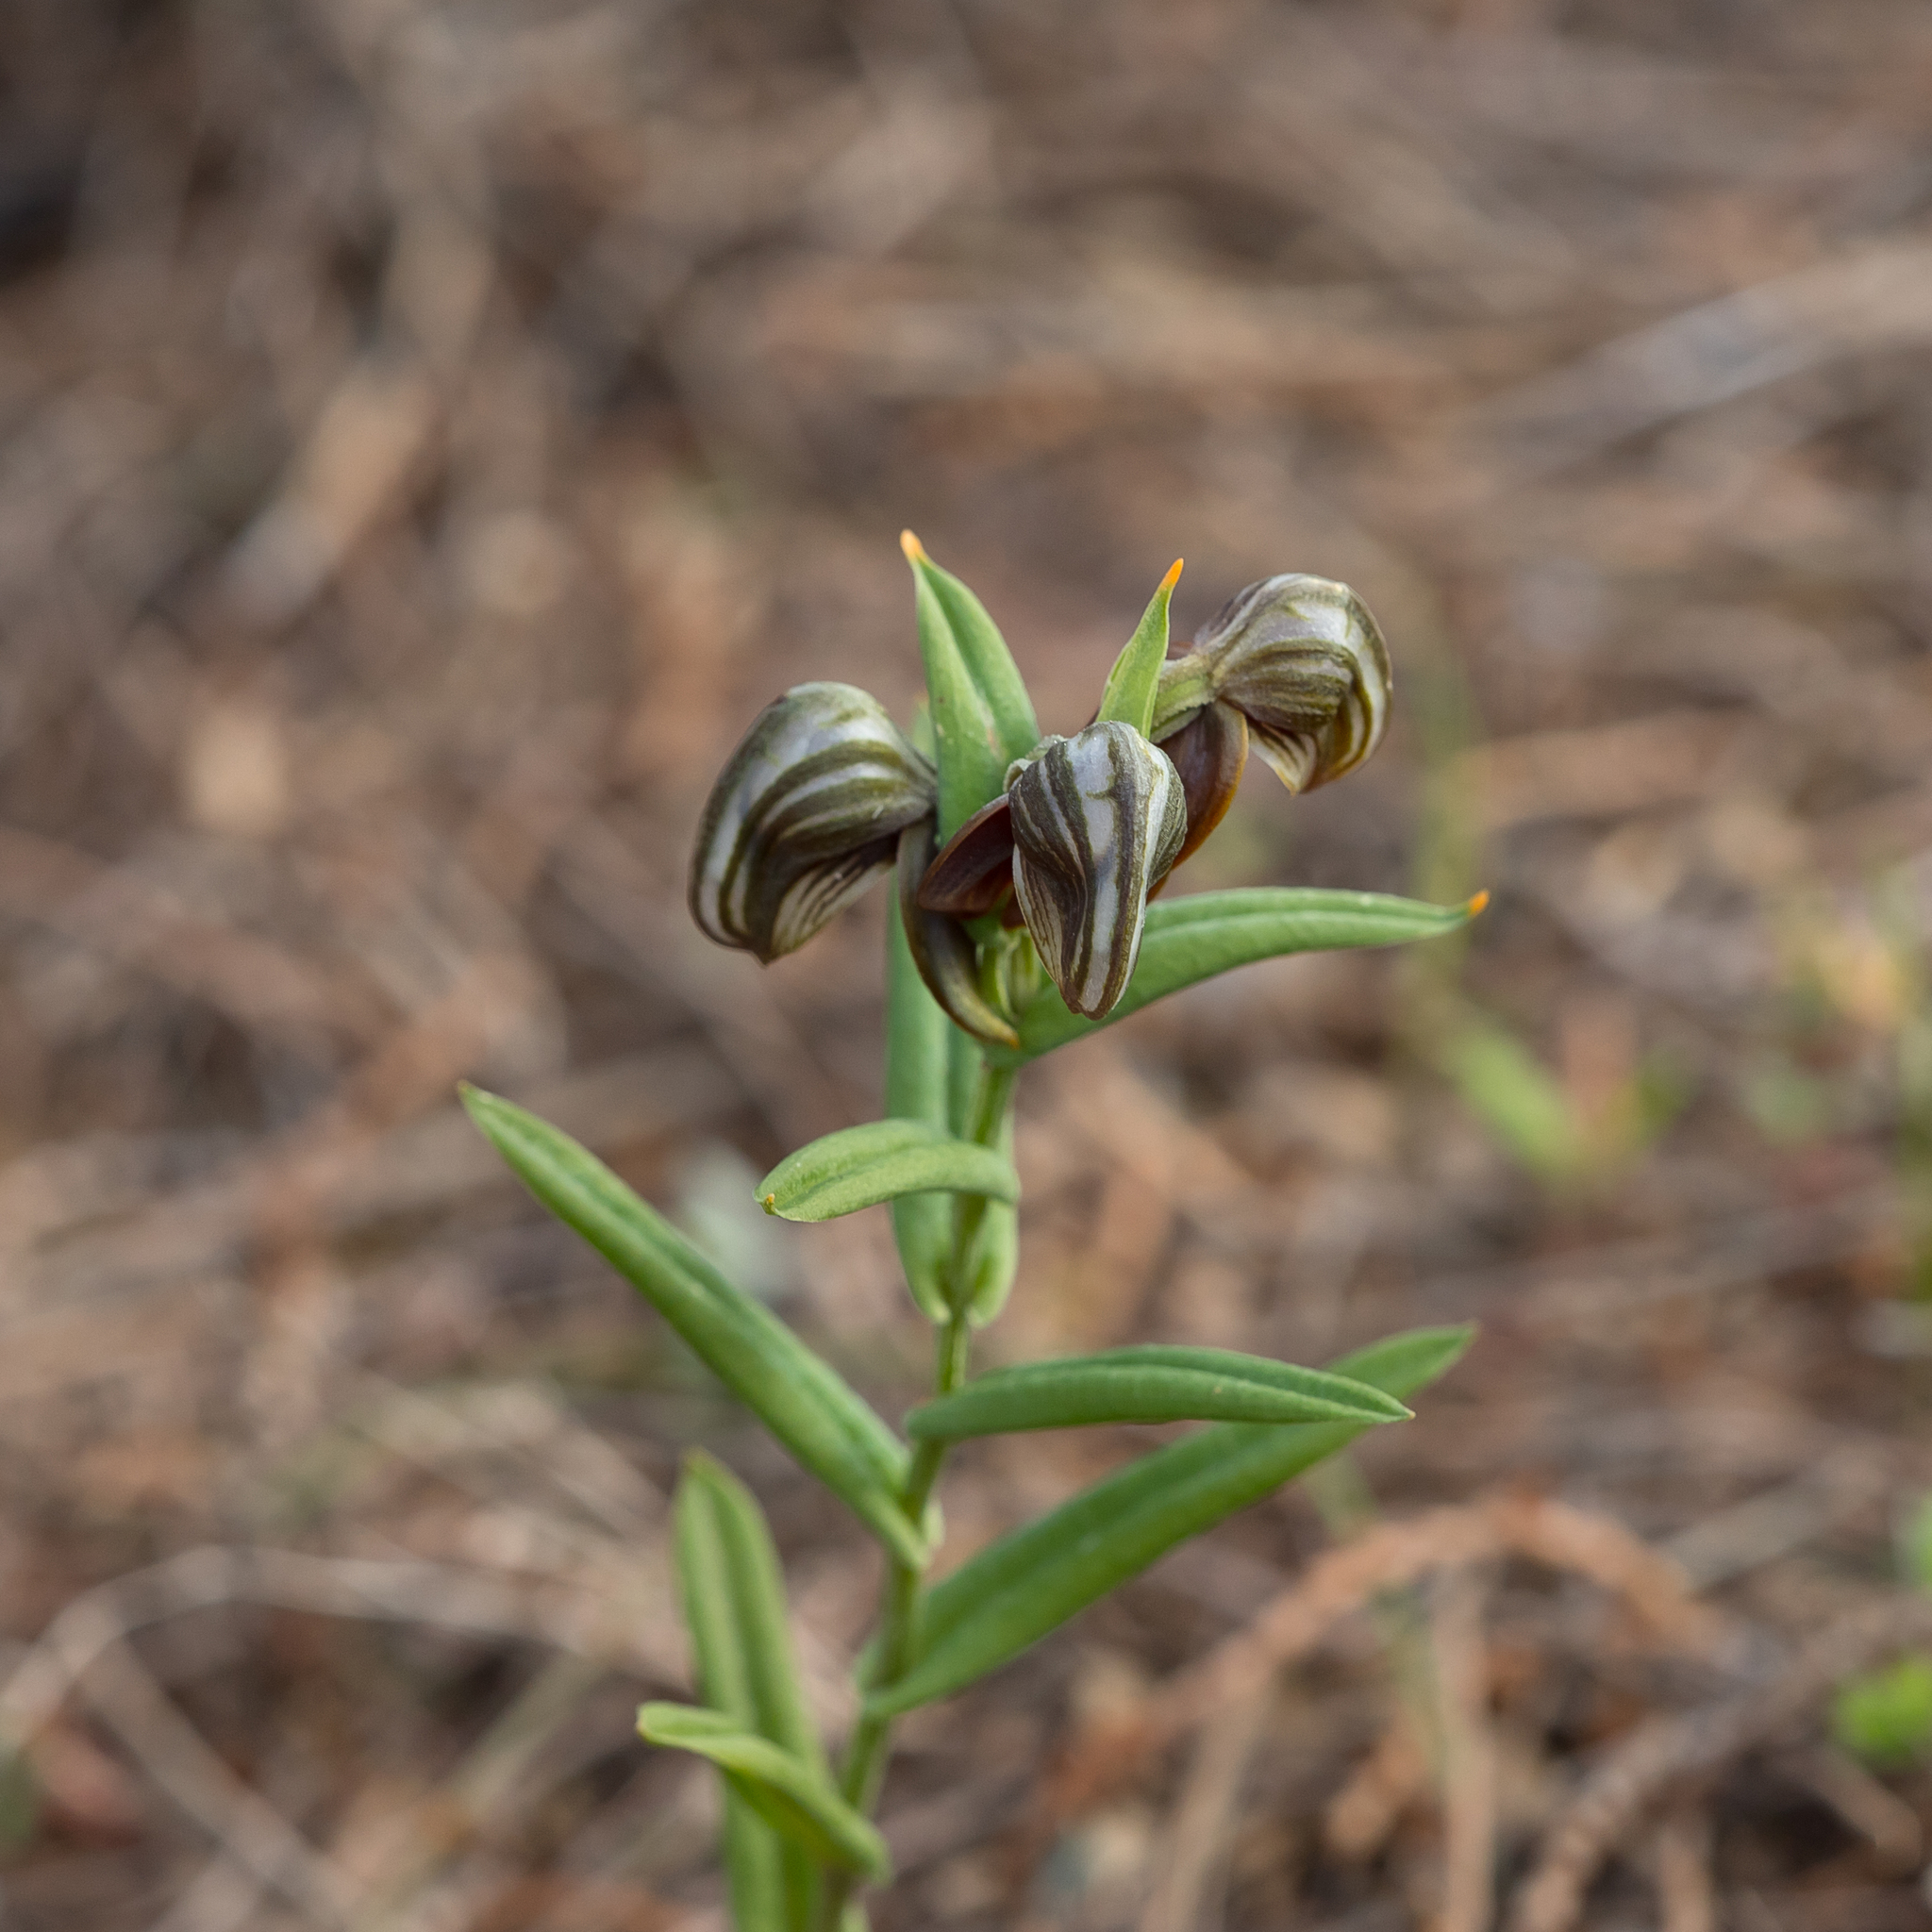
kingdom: Plantae
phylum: Tracheophyta
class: Liliopsida
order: Asparagales
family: Orchidaceae
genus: Pterostylis
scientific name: Pterostylis sanguinea
